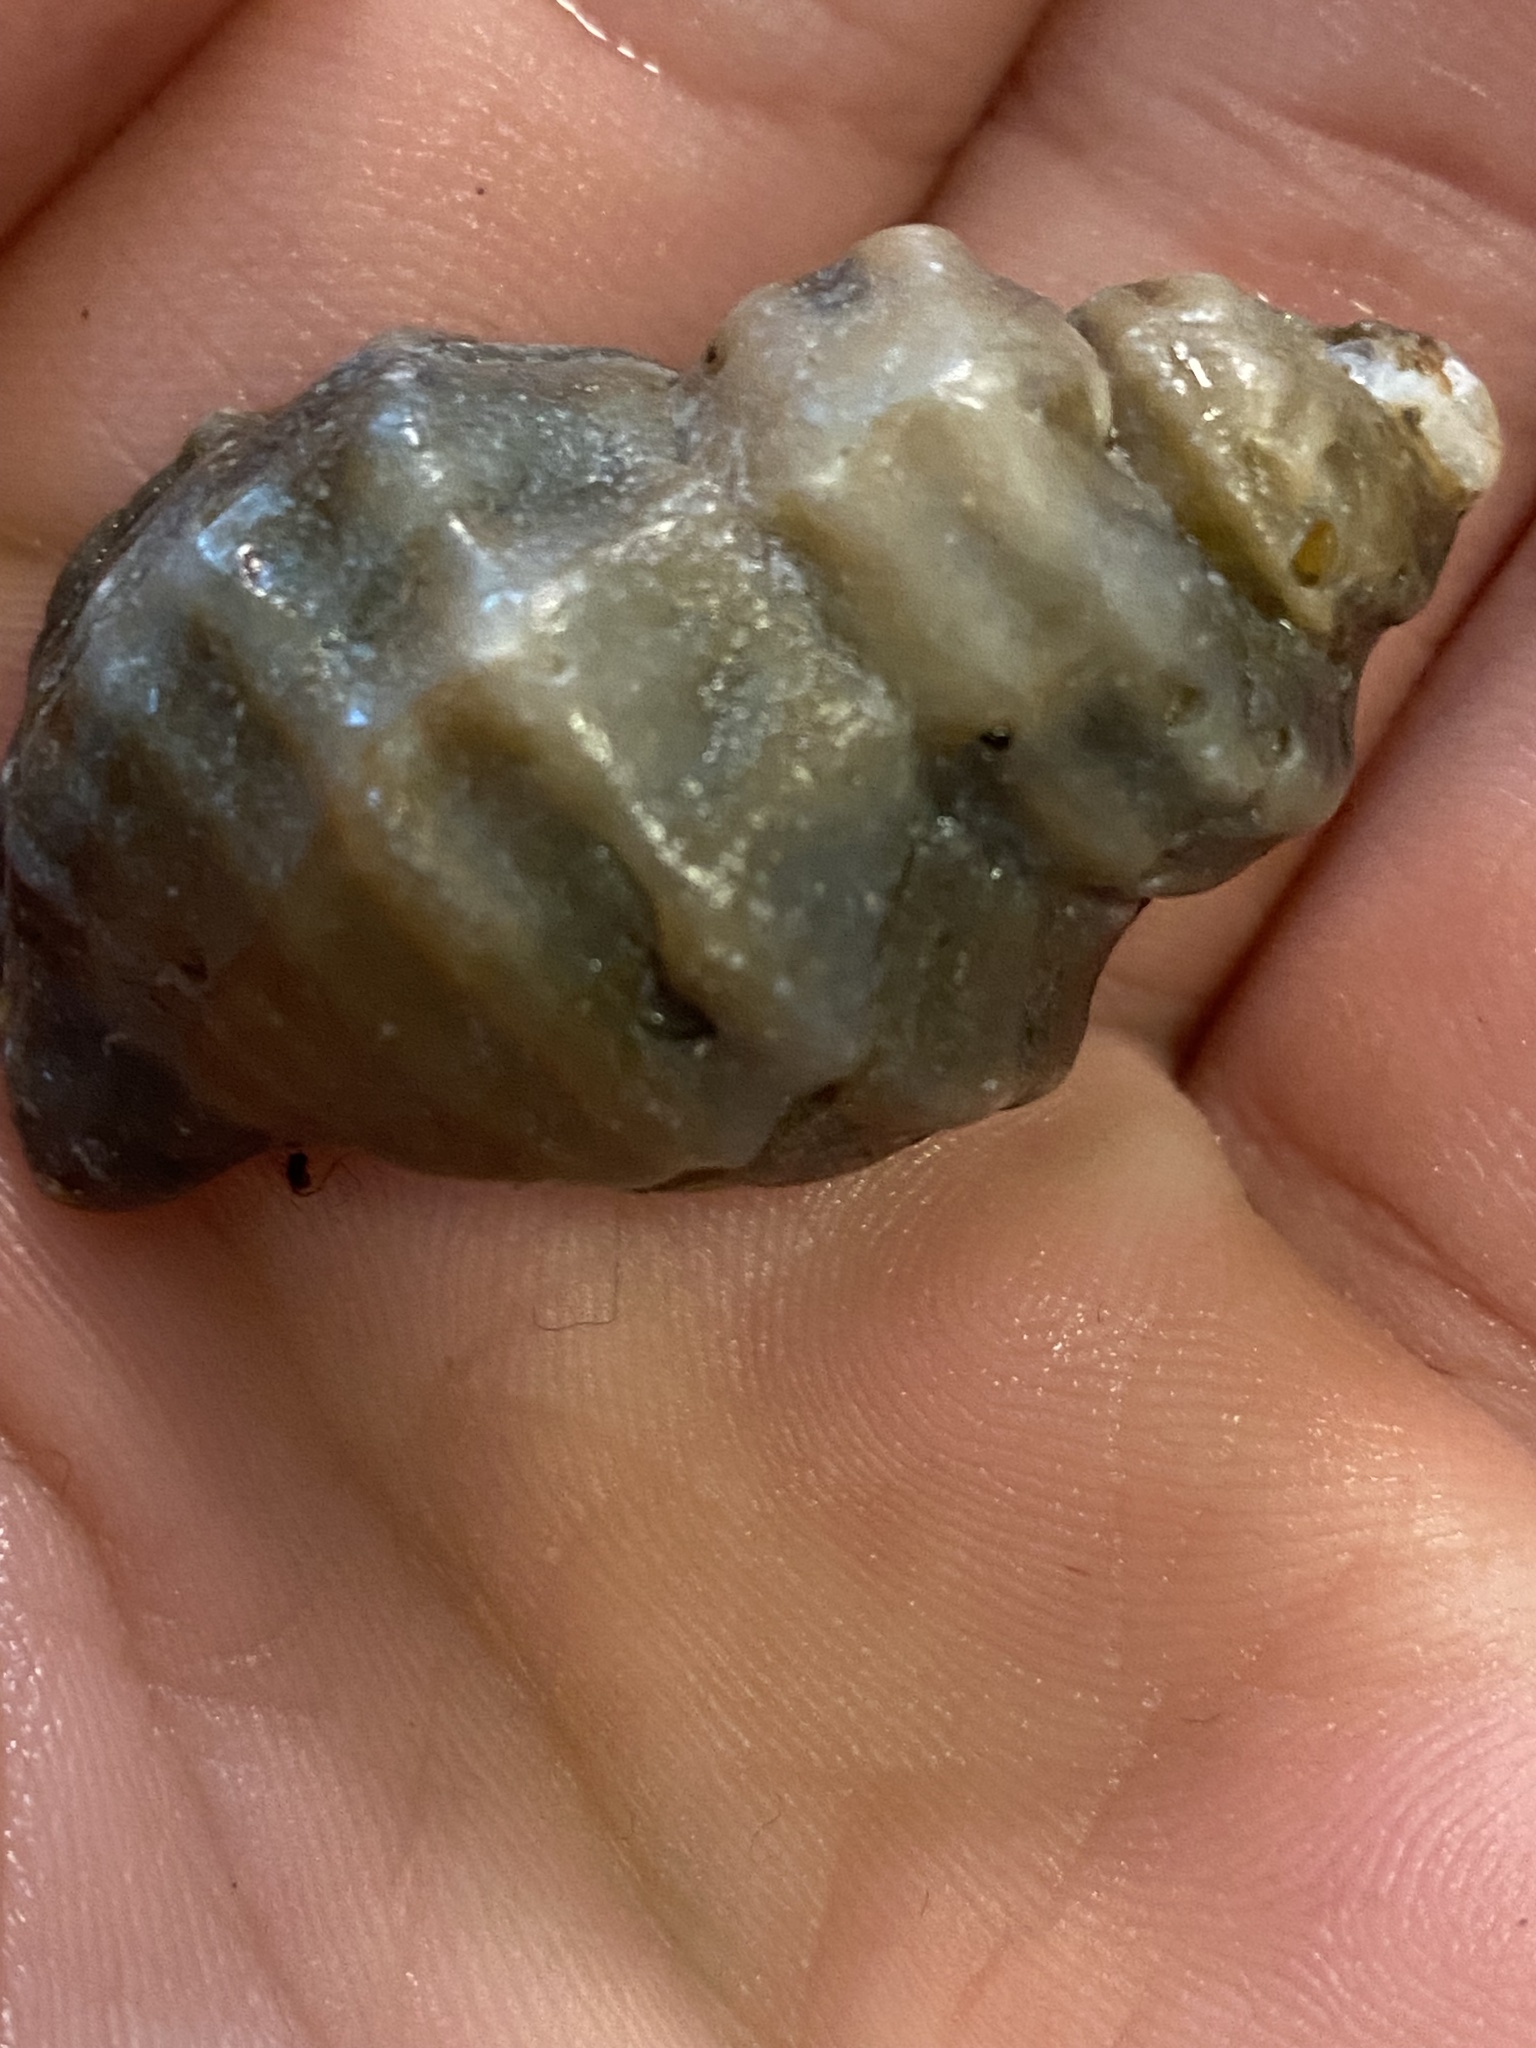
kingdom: Animalia
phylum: Mollusca
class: Gastropoda
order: Neogastropoda
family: Muricidae
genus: Nucella
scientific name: Nucella lamellosa
